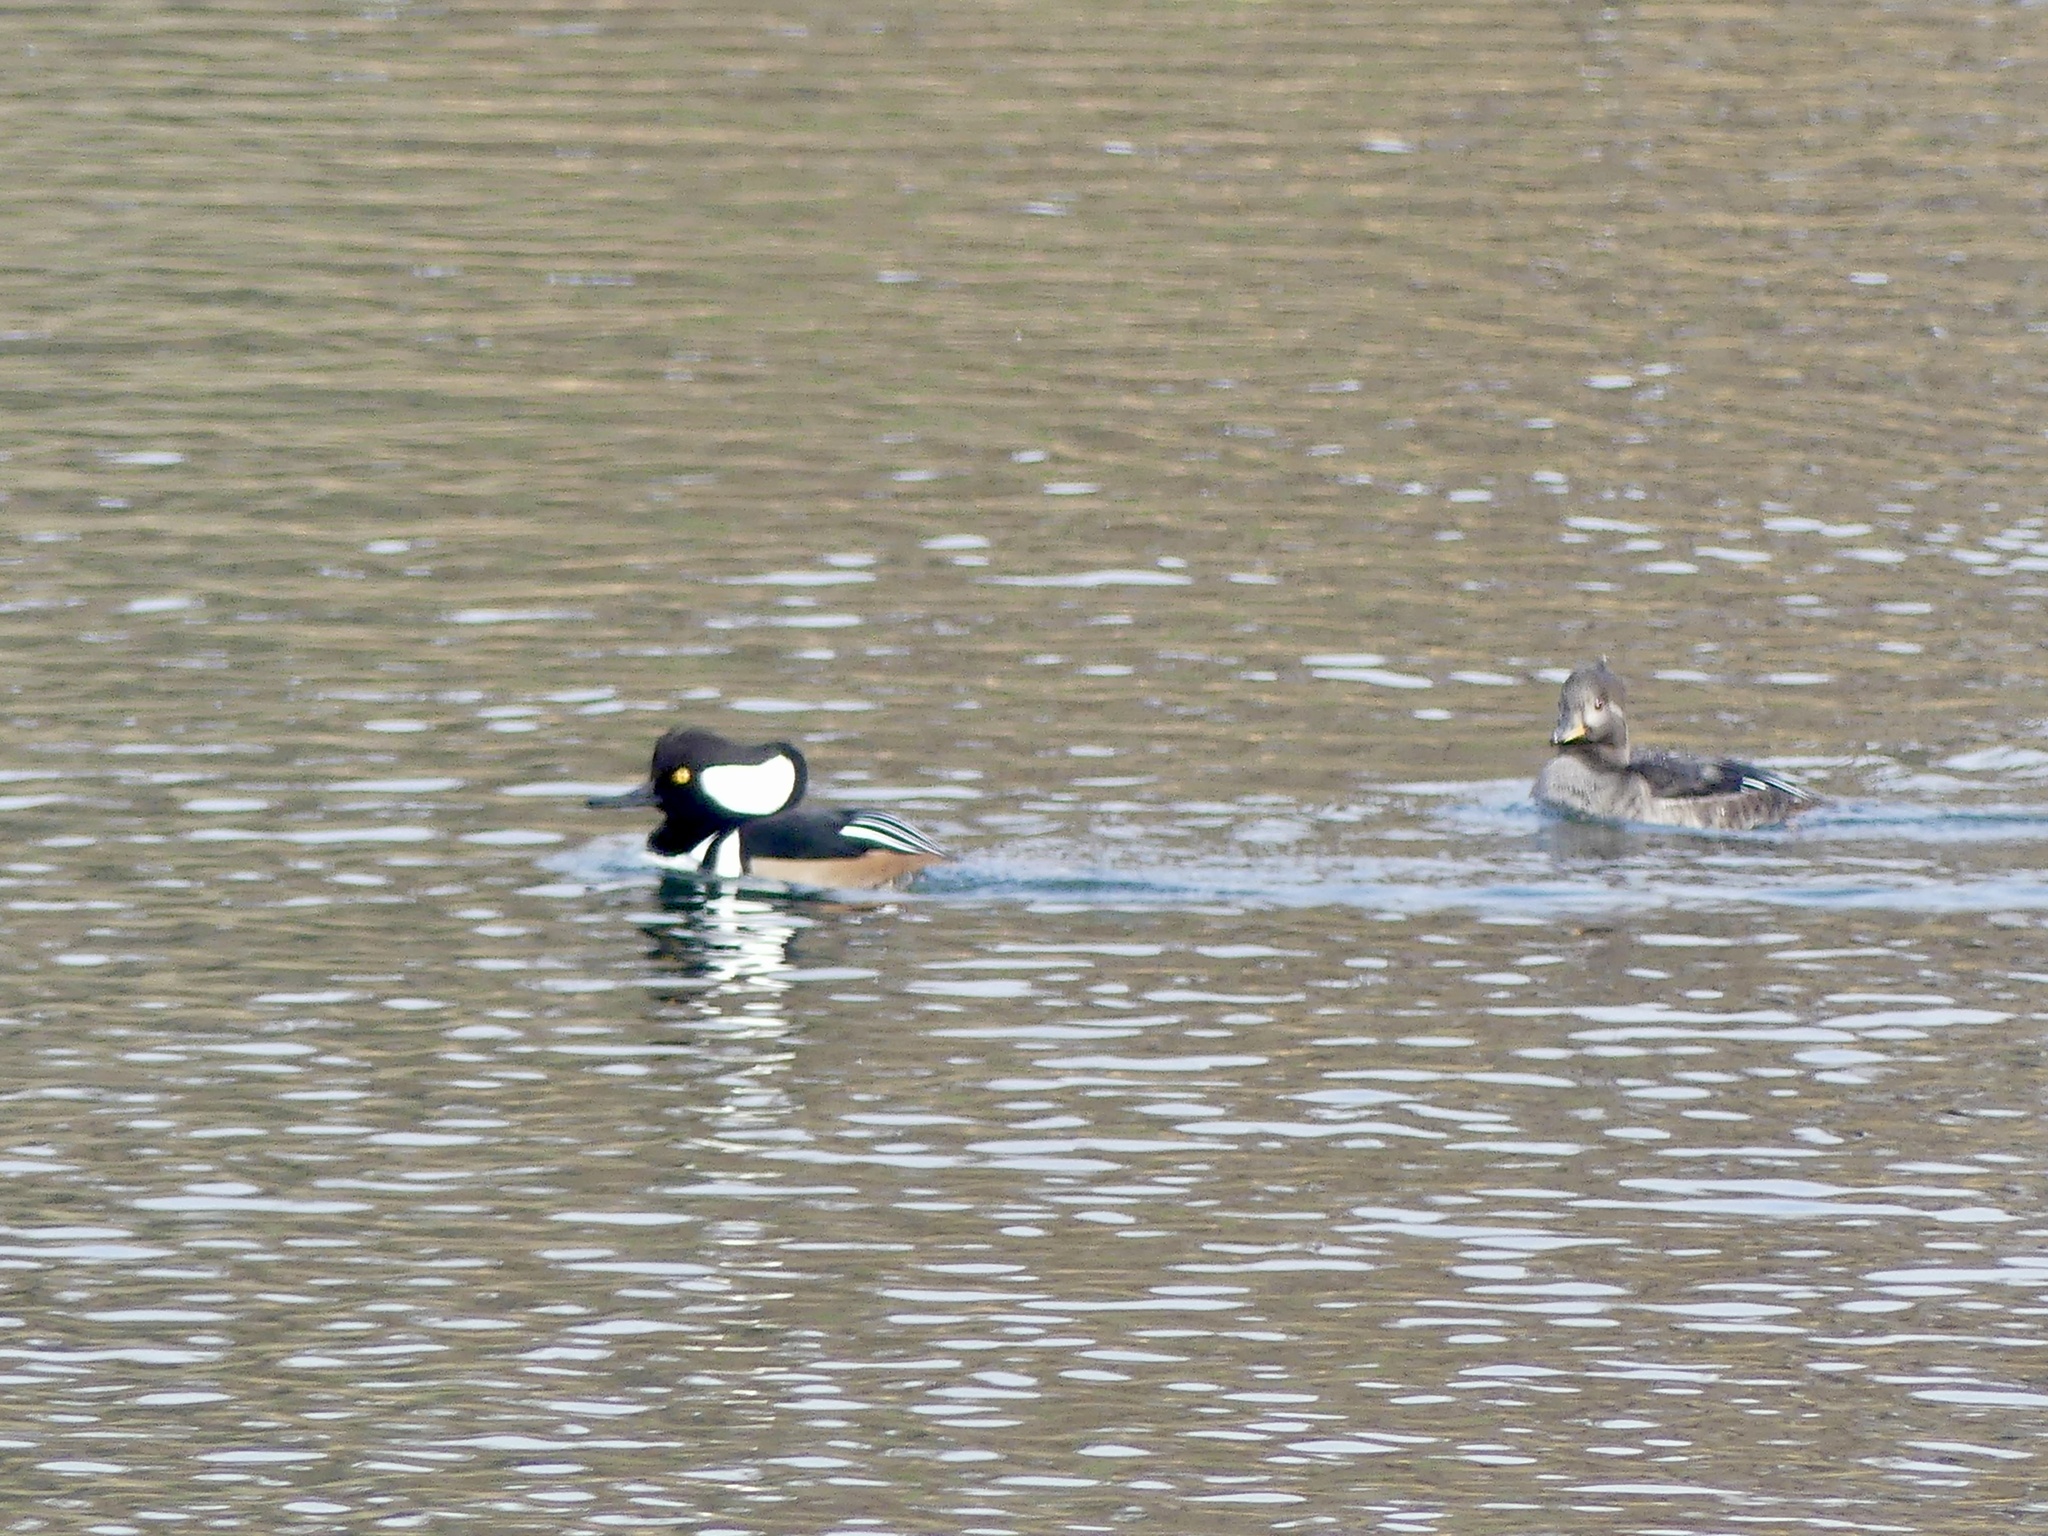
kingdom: Animalia
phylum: Chordata
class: Aves
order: Anseriformes
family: Anatidae
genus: Lophodytes
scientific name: Lophodytes cucullatus
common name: Hooded merganser
